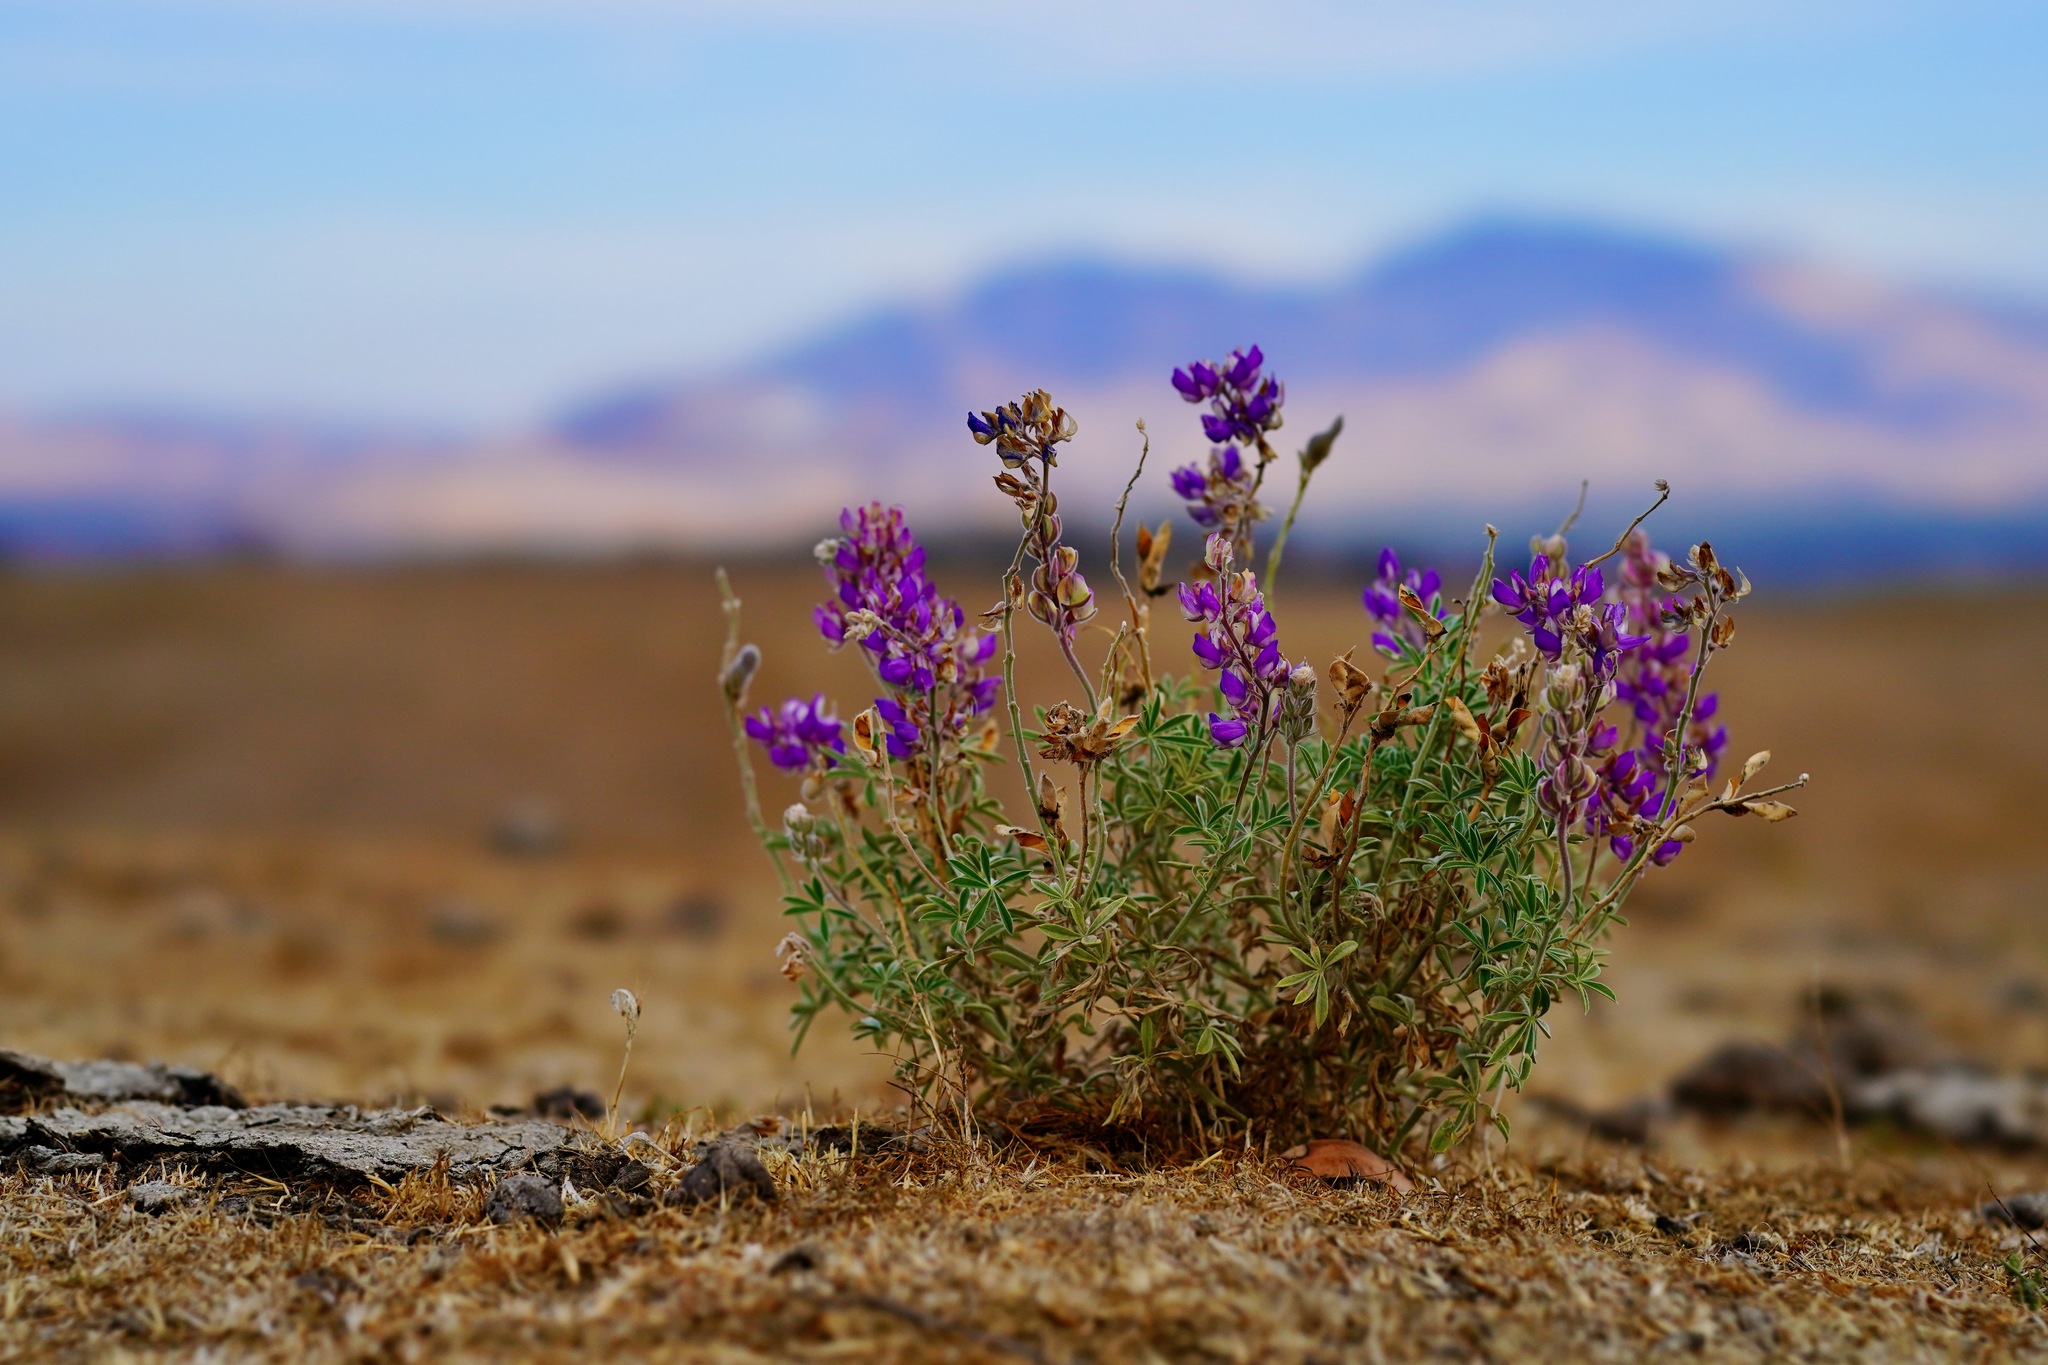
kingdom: Plantae
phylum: Tracheophyta
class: Magnoliopsida
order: Fabales
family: Fabaceae
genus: Lupinus
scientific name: Lupinus formosus
